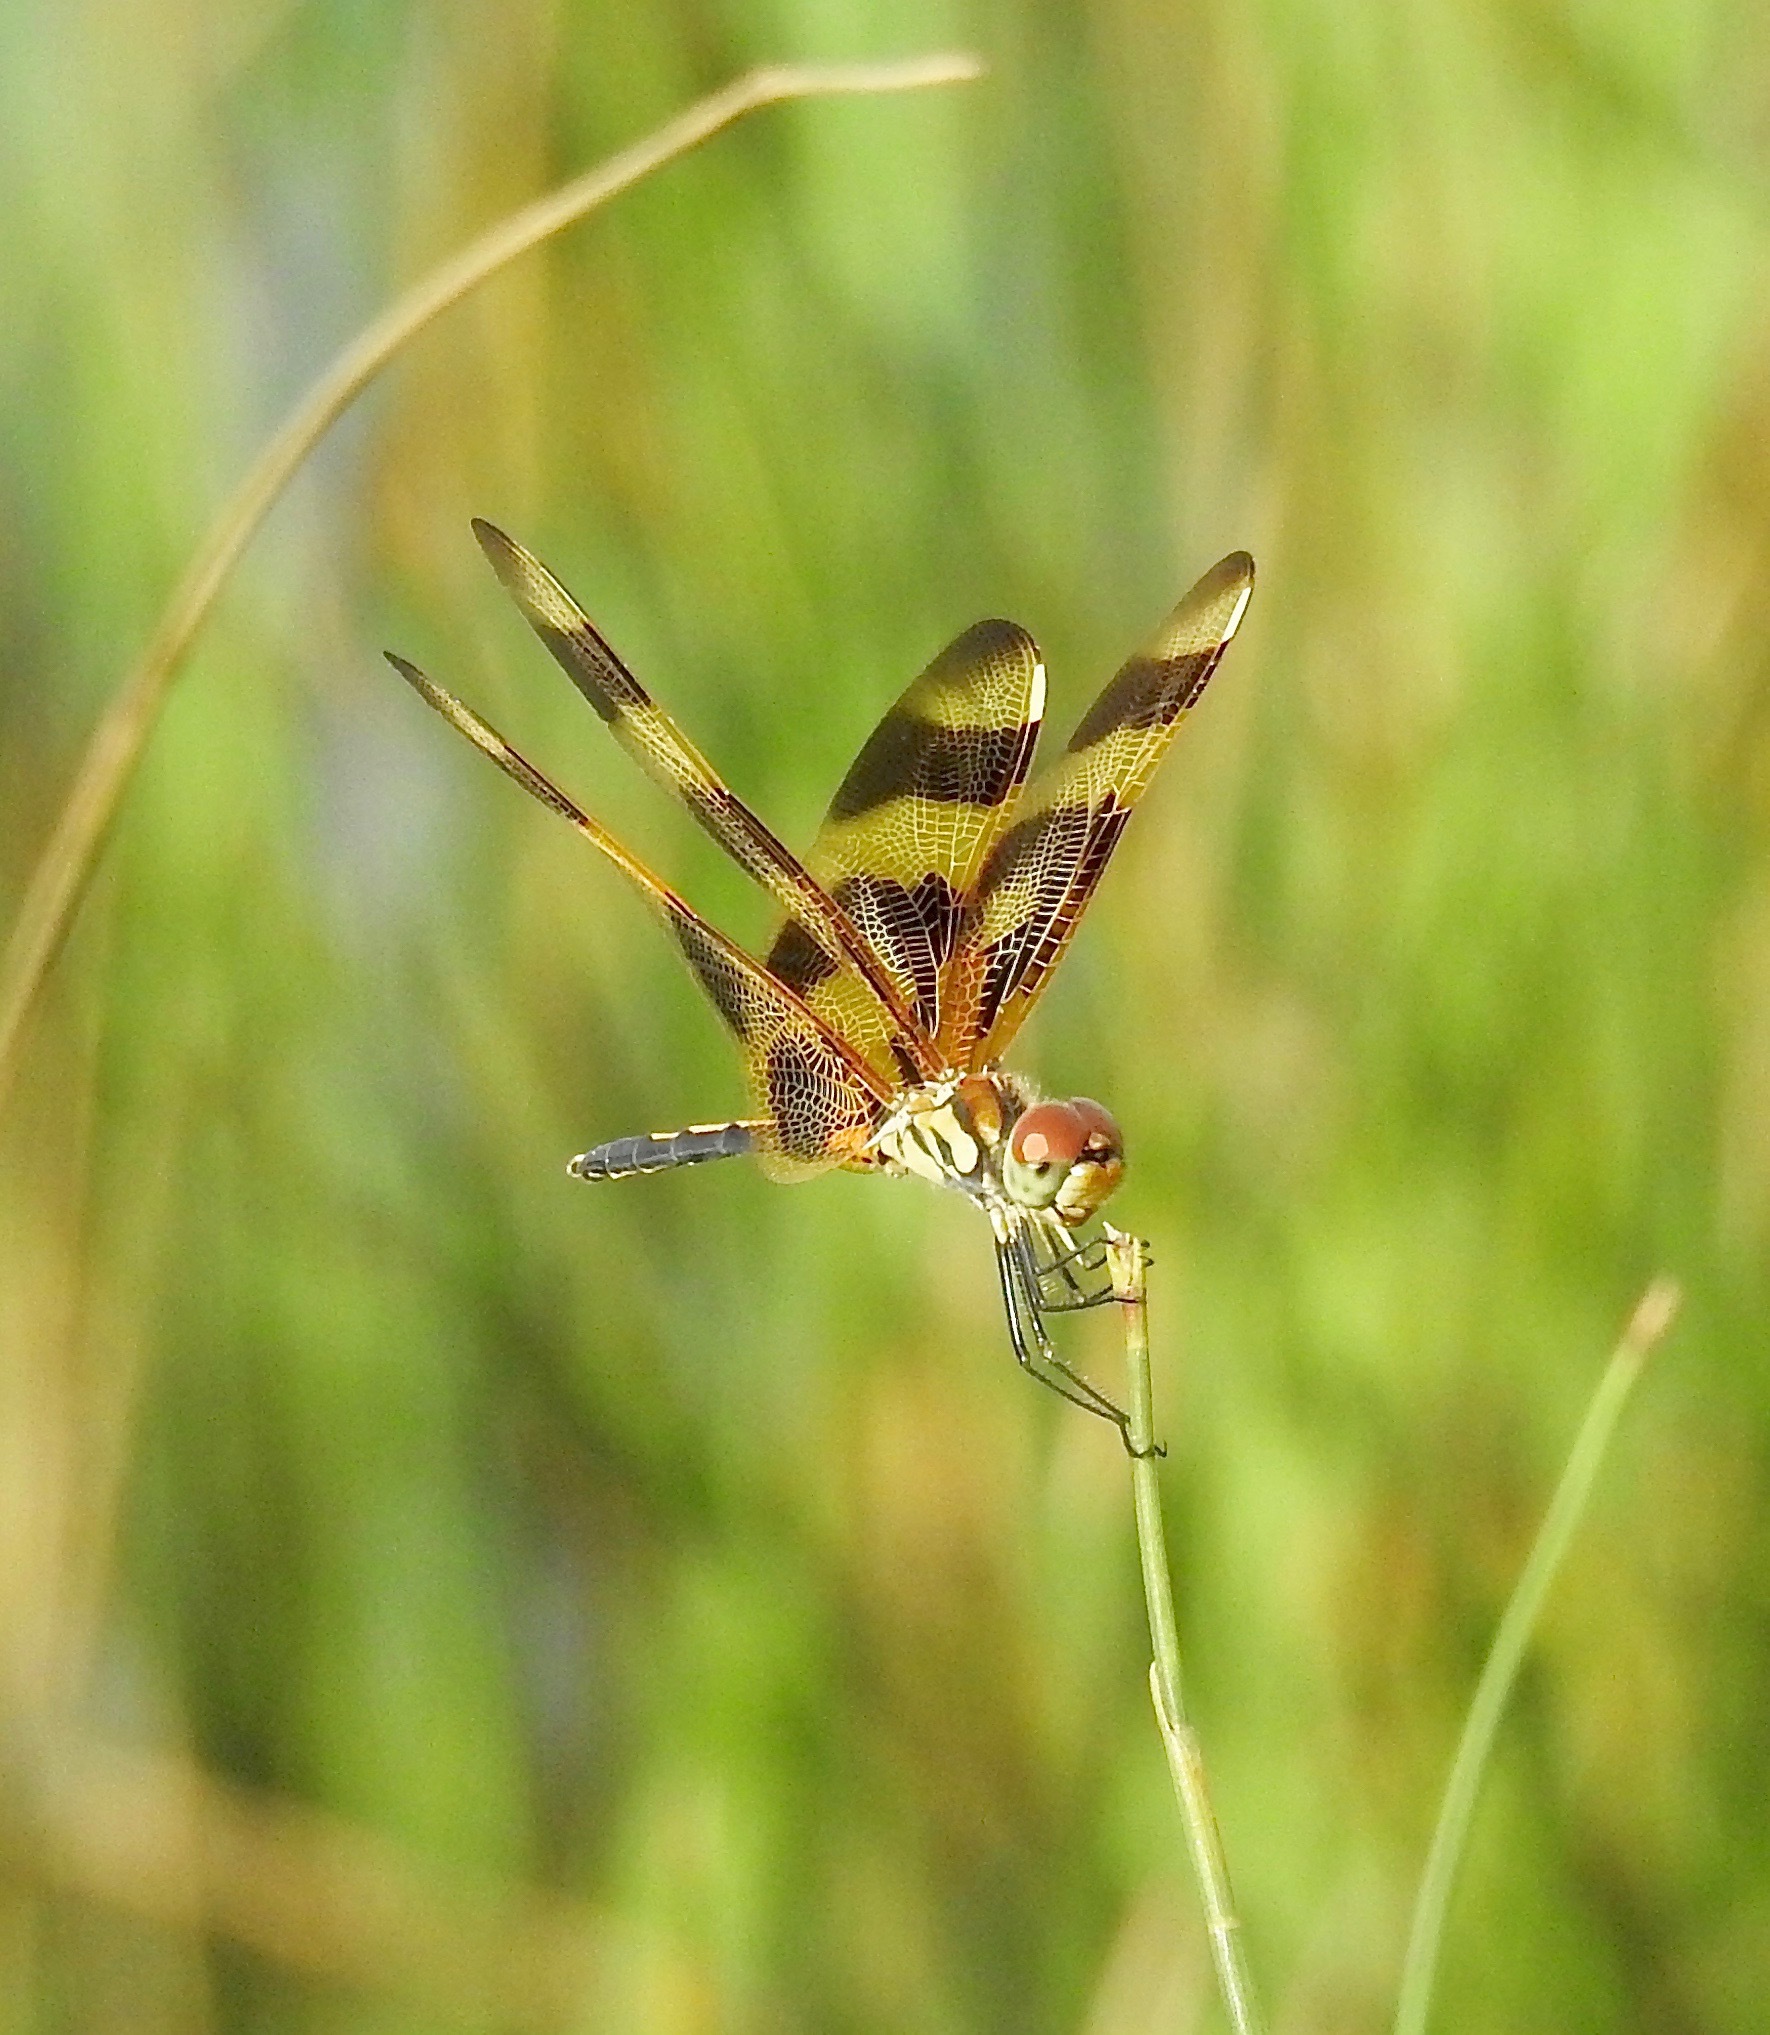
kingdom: Animalia
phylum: Arthropoda
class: Insecta
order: Odonata
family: Libellulidae
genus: Celithemis
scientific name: Celithemis eponina
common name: Halloween pennant
